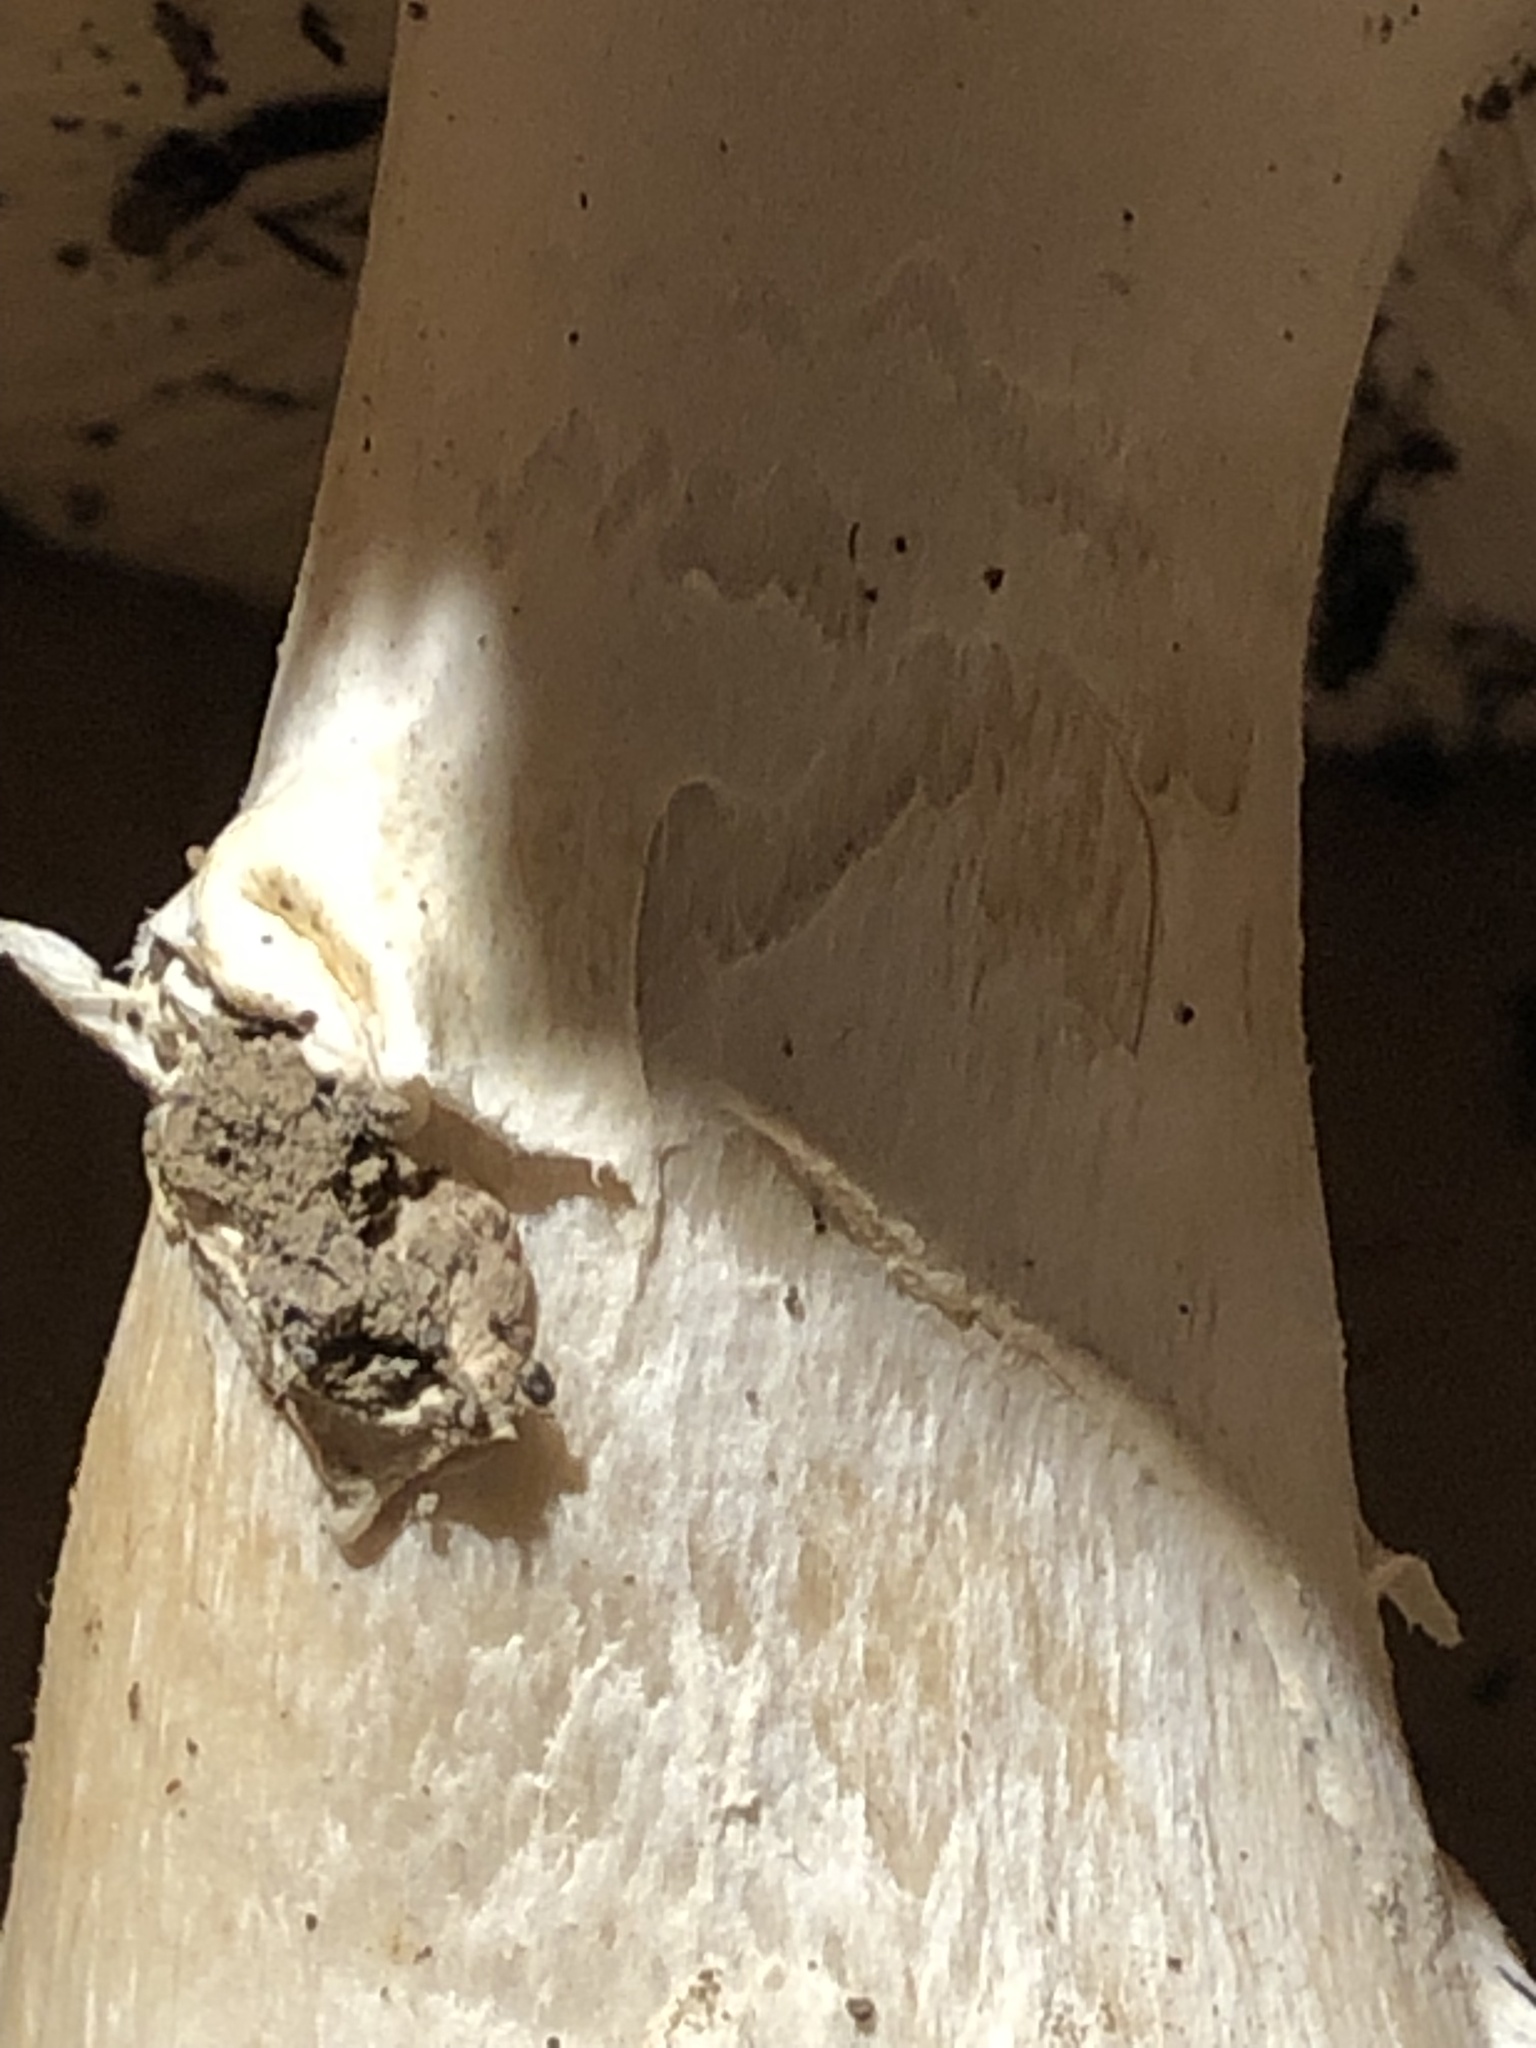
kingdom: Fungi
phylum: Basidiomycota
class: Agaricomycetes
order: Agaricales
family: Amanitaceae
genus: Amanita
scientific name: Amanita pantherinoides
